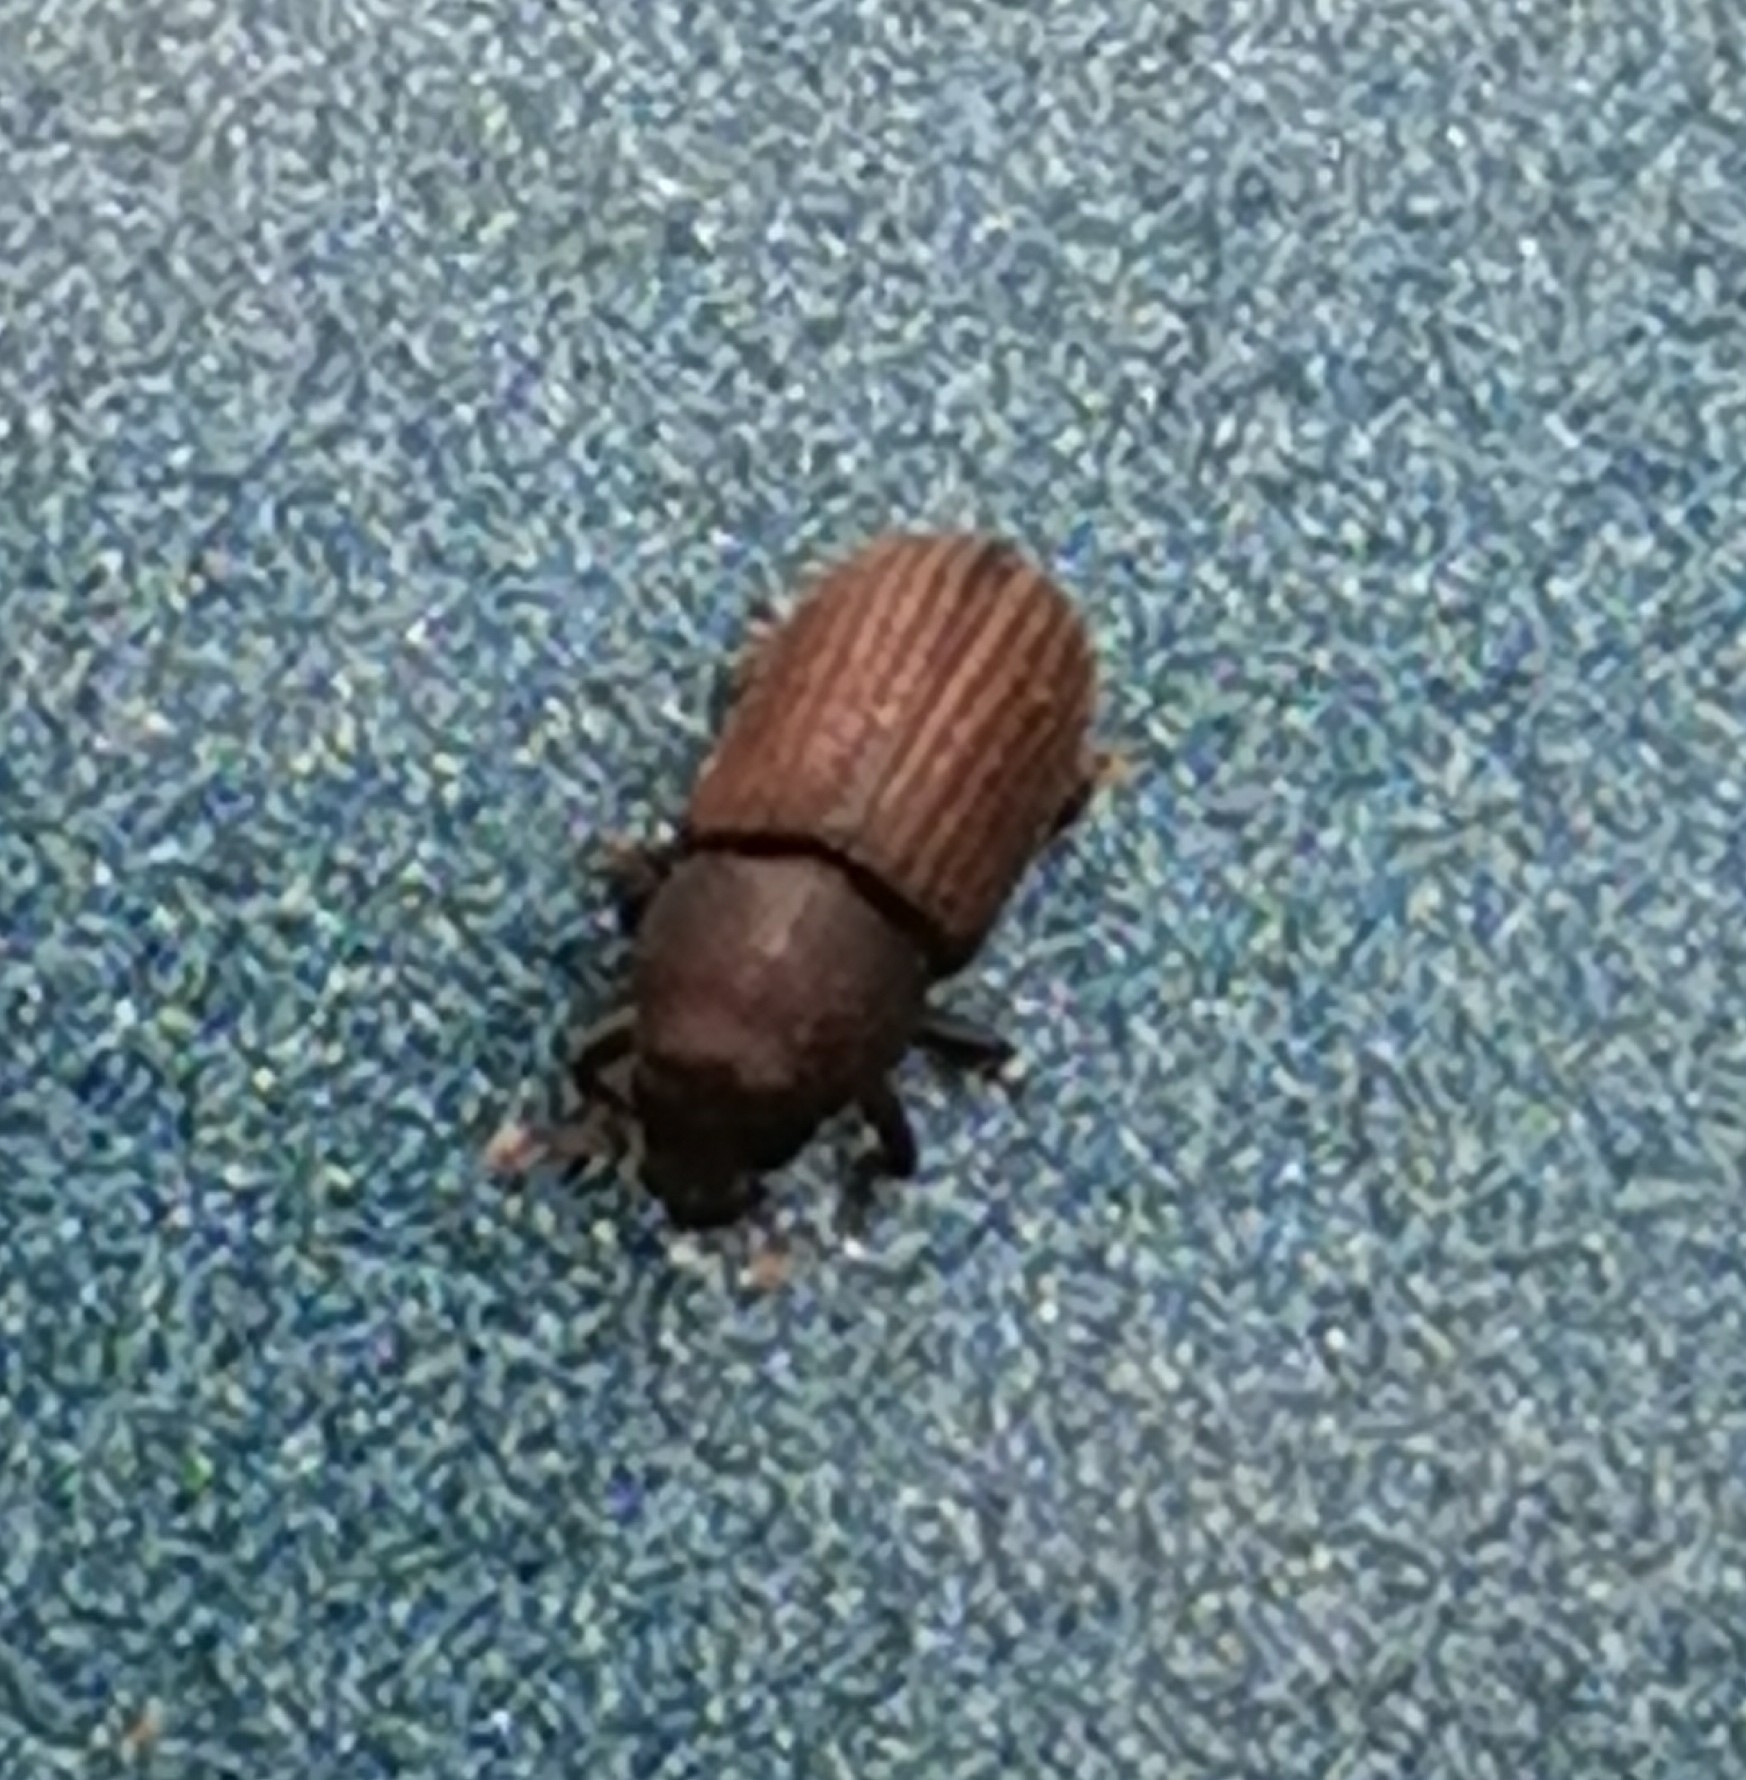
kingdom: Animalia
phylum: Arthropoda
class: Insecta
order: Coleoptera
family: Curculionidae
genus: Hylurgops
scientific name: Hylurgops palliatus
